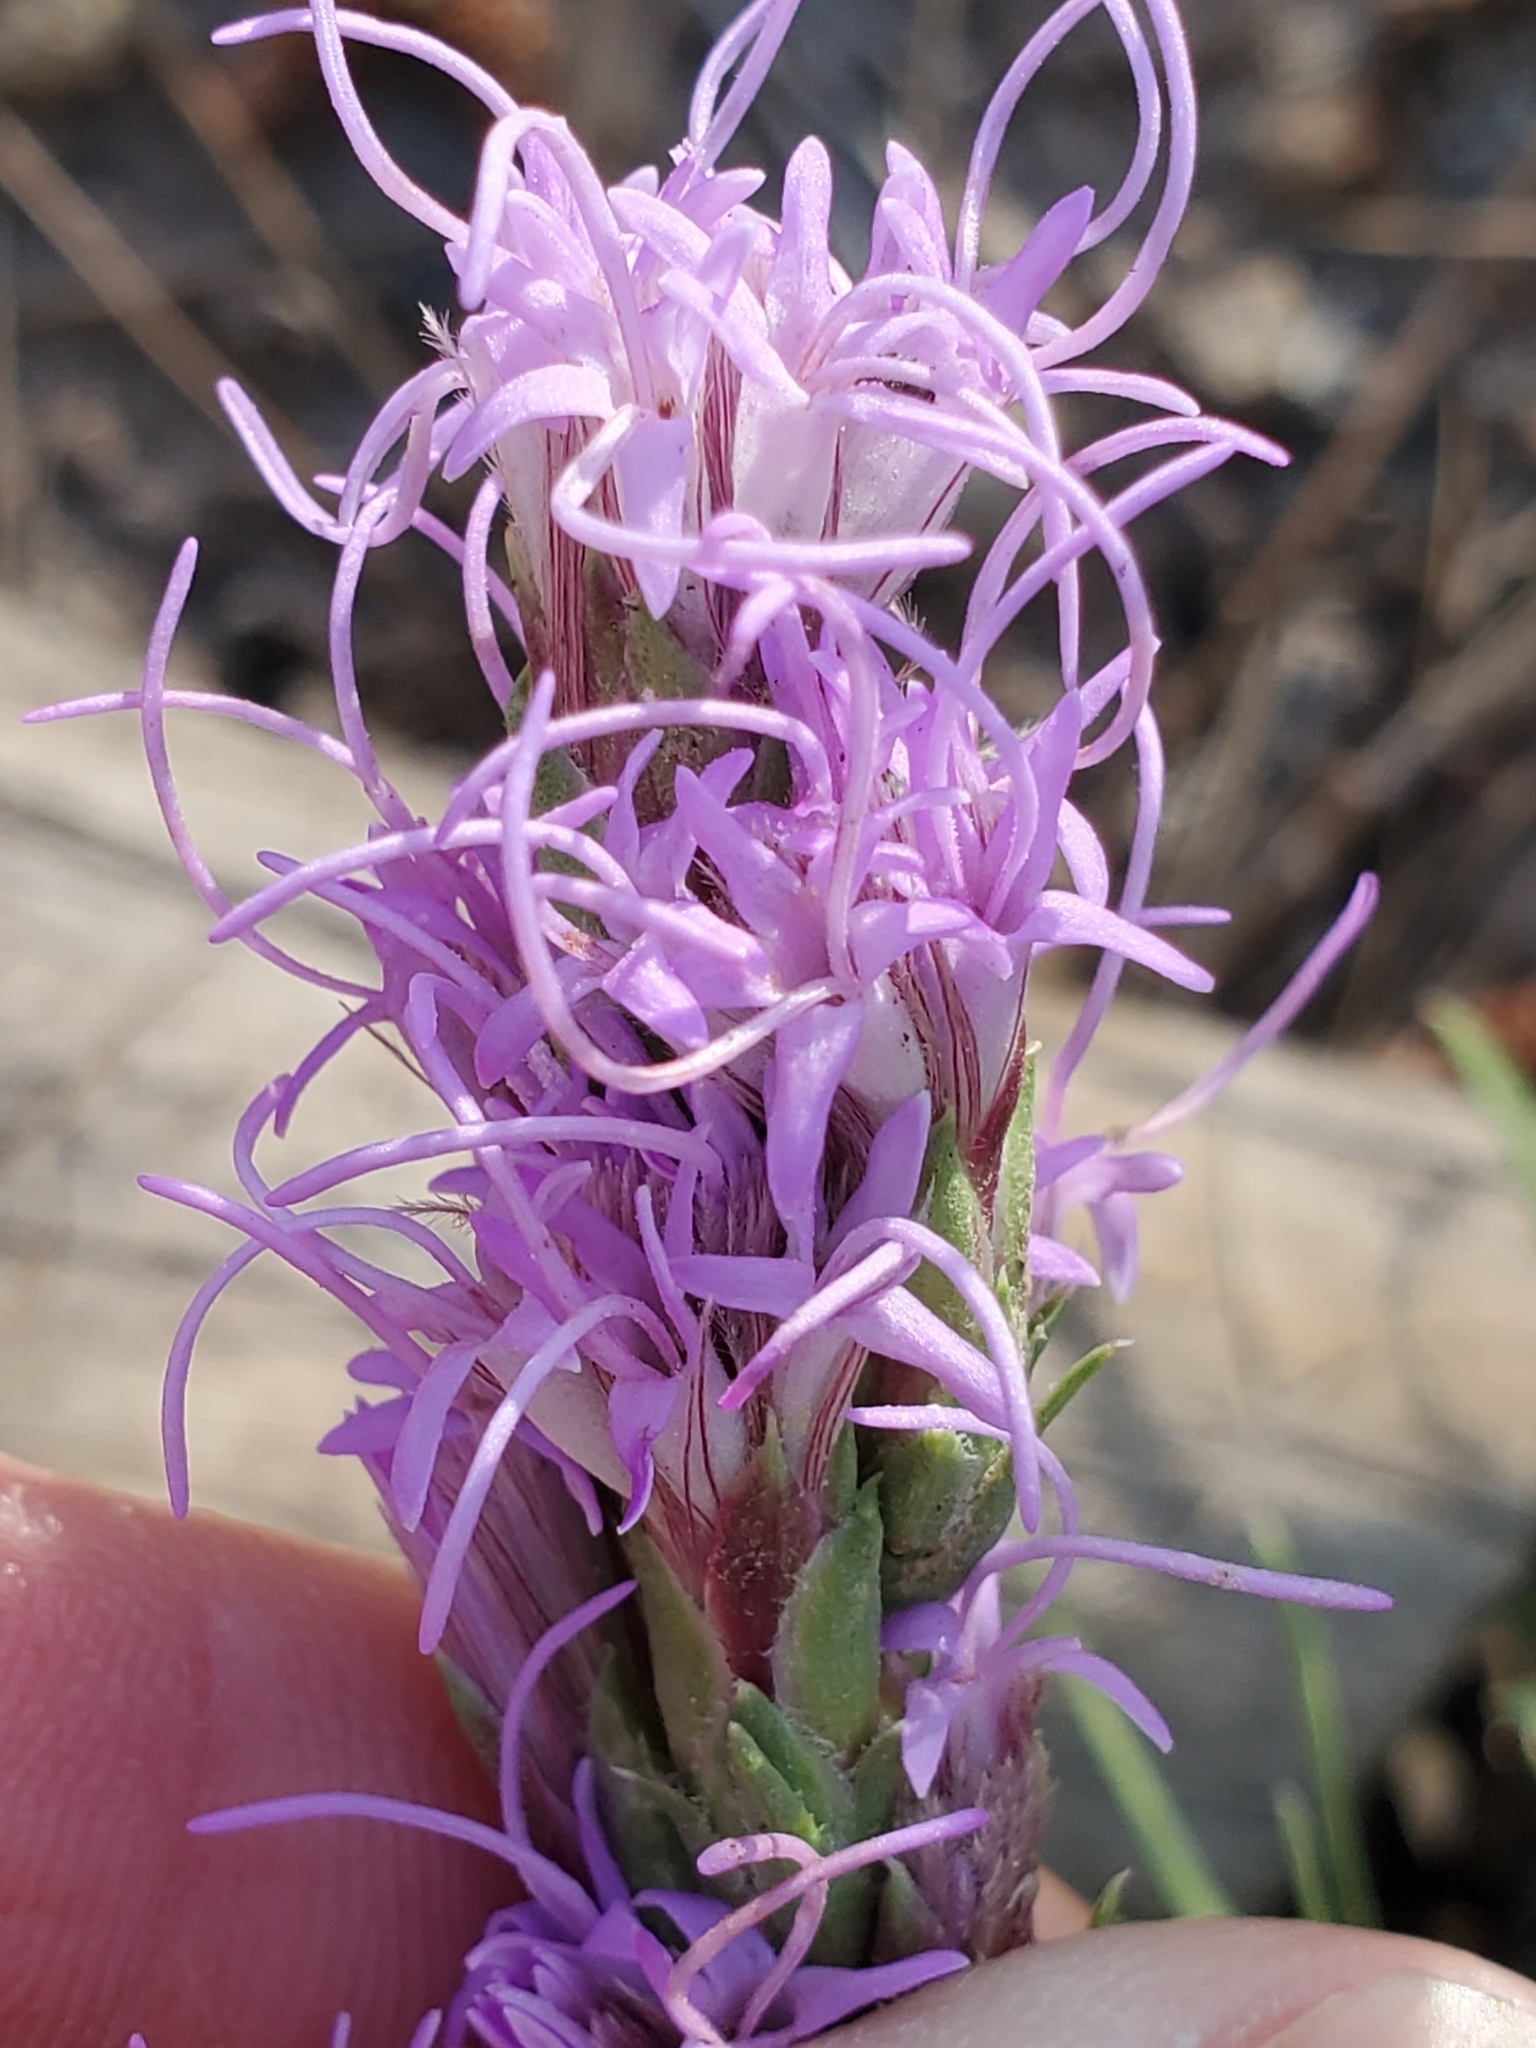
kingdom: Plantae
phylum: Tracheophyta
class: Magnoliopsida
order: Asterales
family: Asteraceae
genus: Liatris
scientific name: Liatris punctata
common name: Dotted gayfeather
